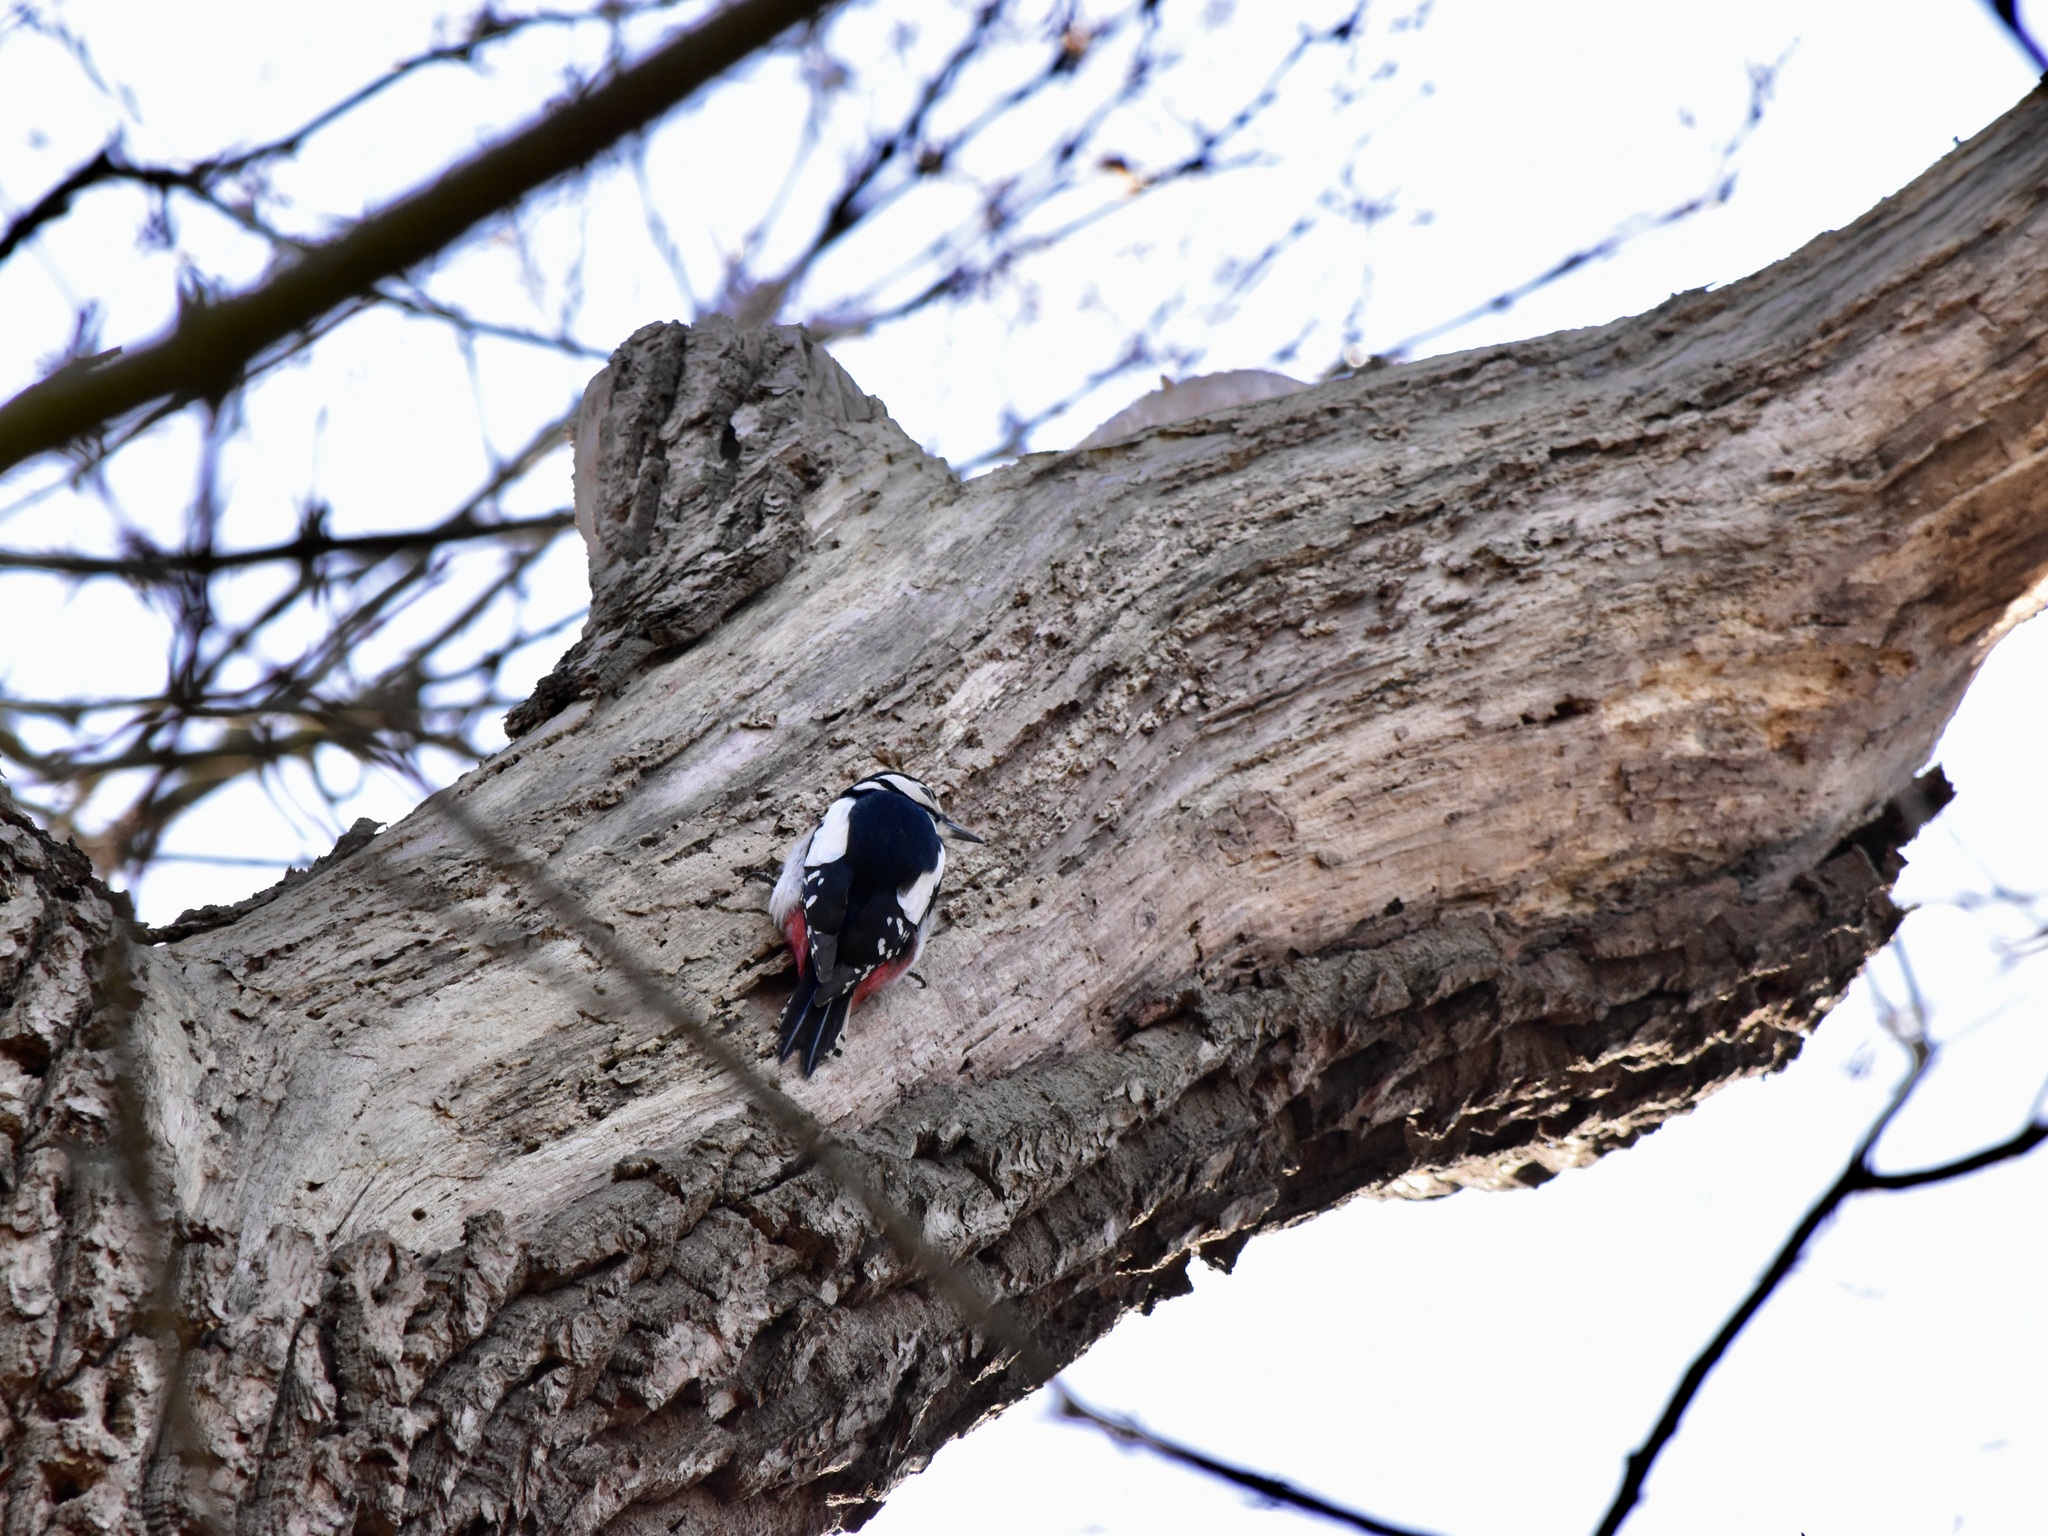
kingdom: Animalia
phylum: Chordata
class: Aves
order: Piciformes
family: Picidae
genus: Dendrocopos
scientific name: Dendrocopos major
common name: Great spotted woodpecker
